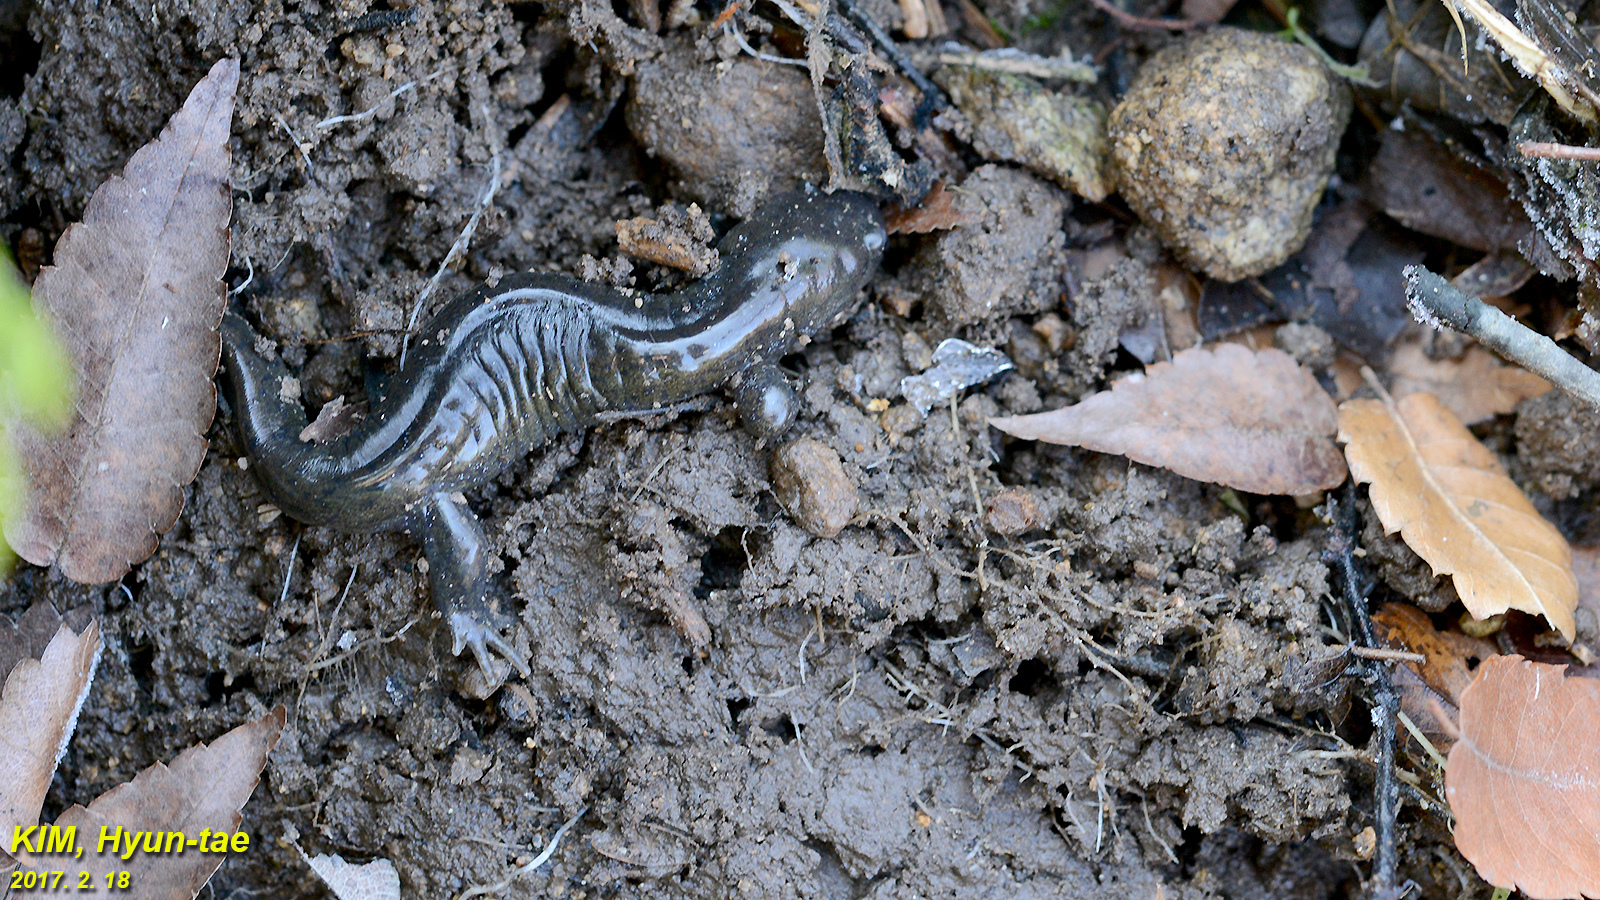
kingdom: Animalia
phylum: Chordata
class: Amphibia
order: Caudata
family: Hynobiidae
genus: Hynobius
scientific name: Hynobius leechii
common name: Gensan salamander
